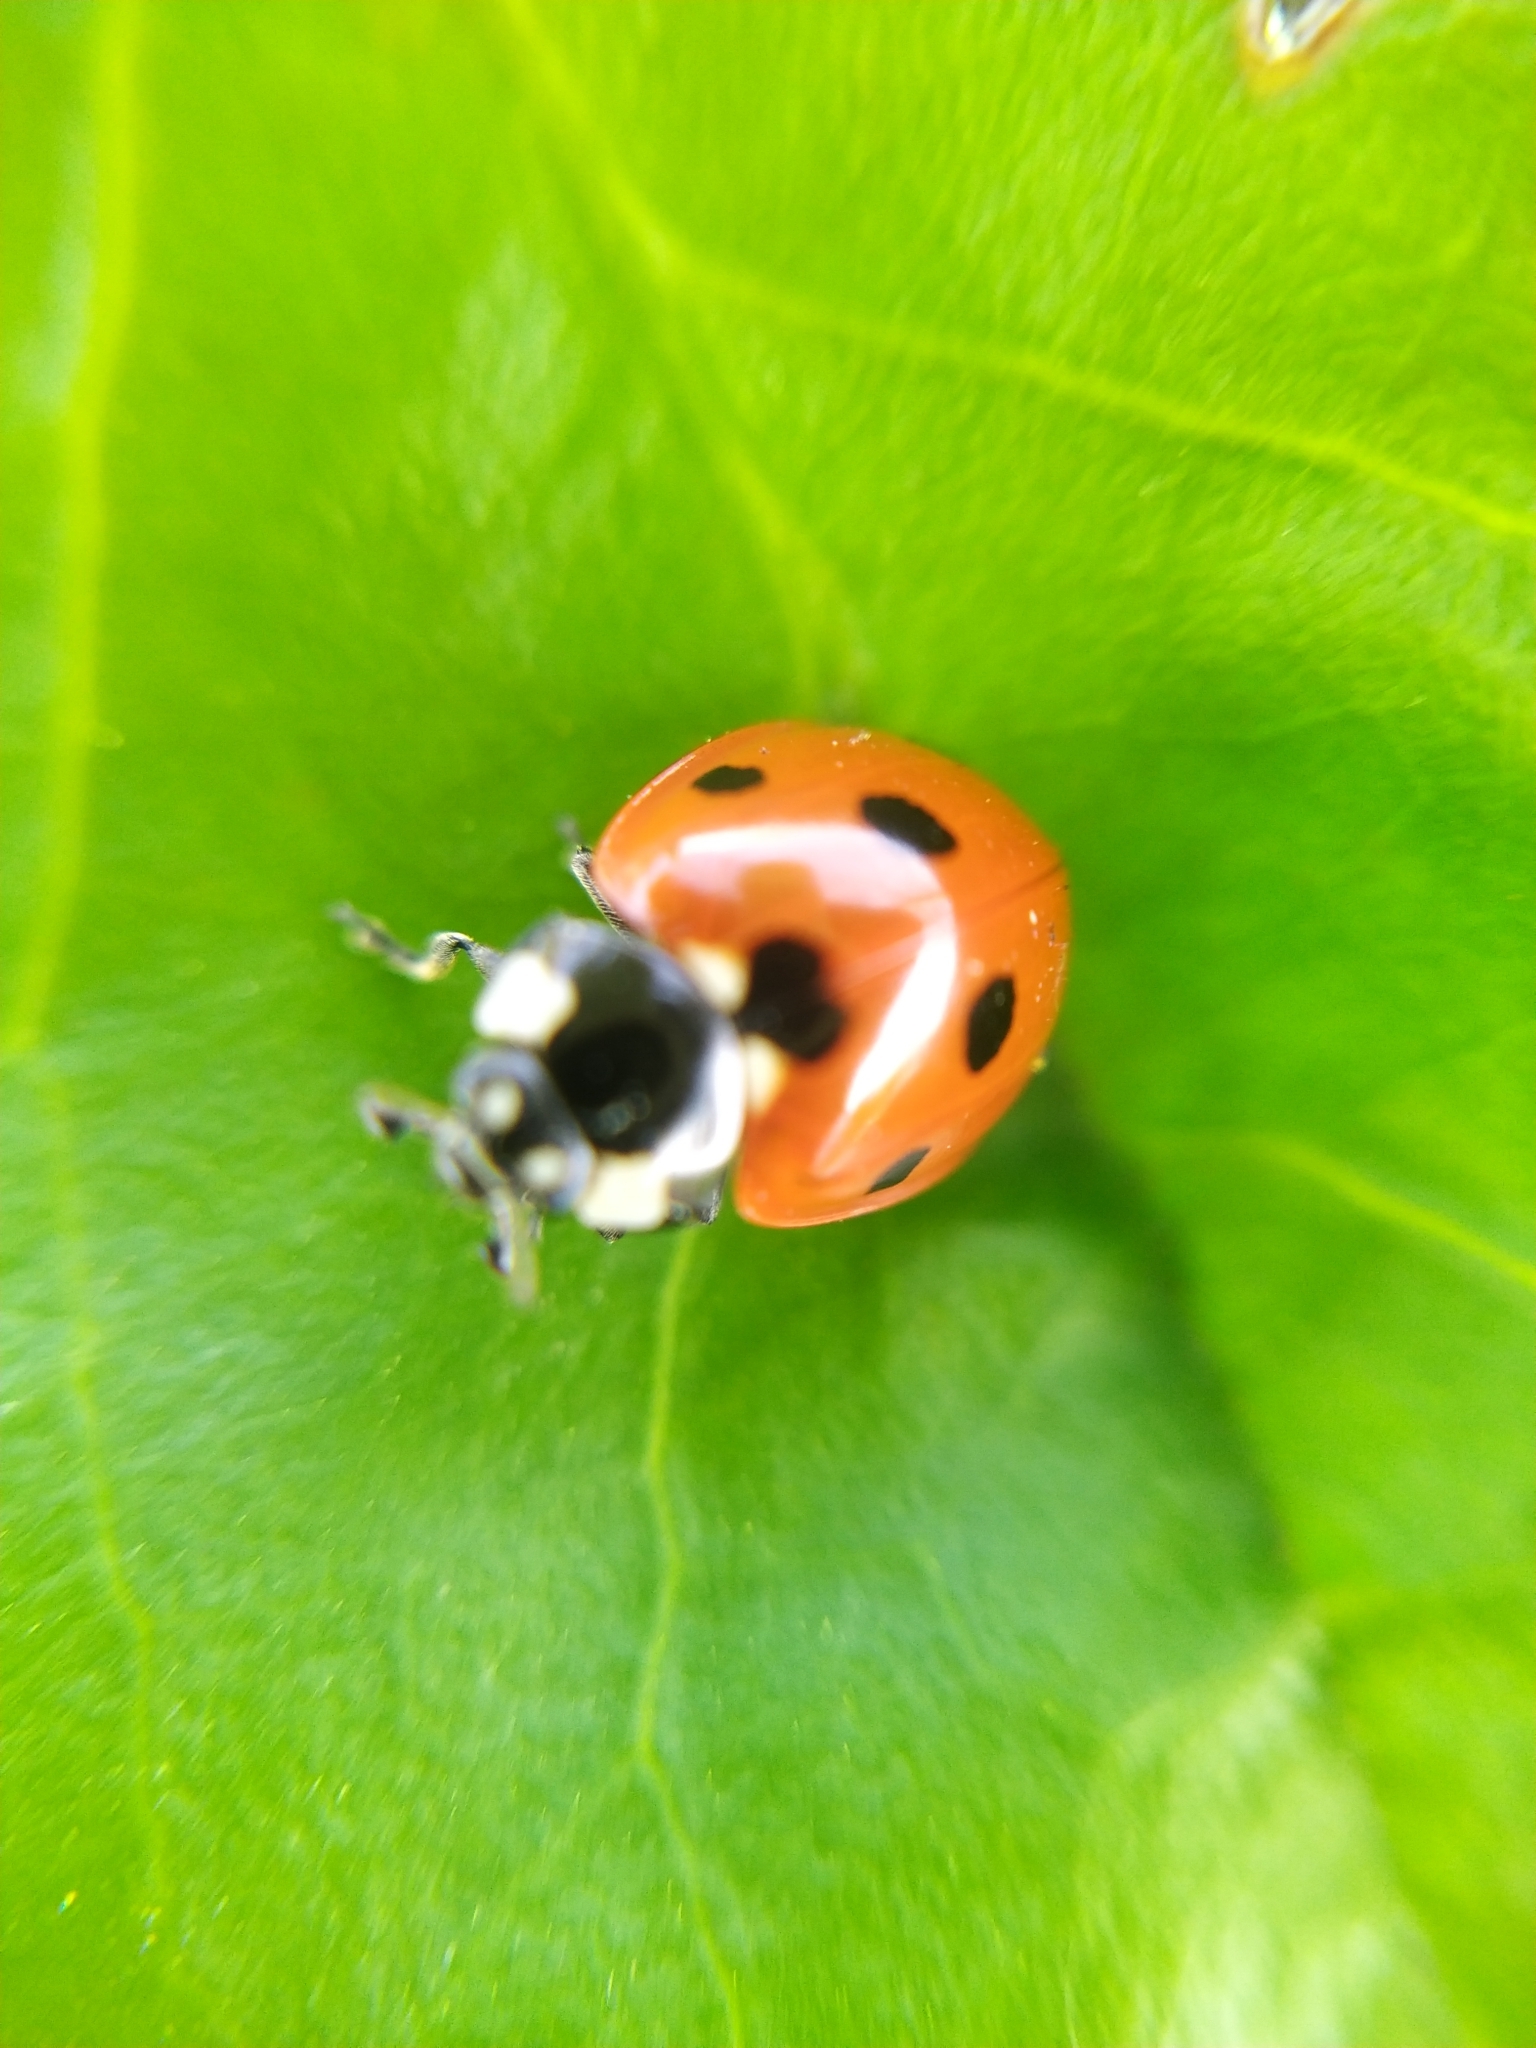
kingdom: Animalia
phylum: Arthropoda
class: Insecta
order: Coleoptera
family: Coccinellidae
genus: Coccinella
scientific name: Coccinella septempunctata
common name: Sevenspotted lady beetle
